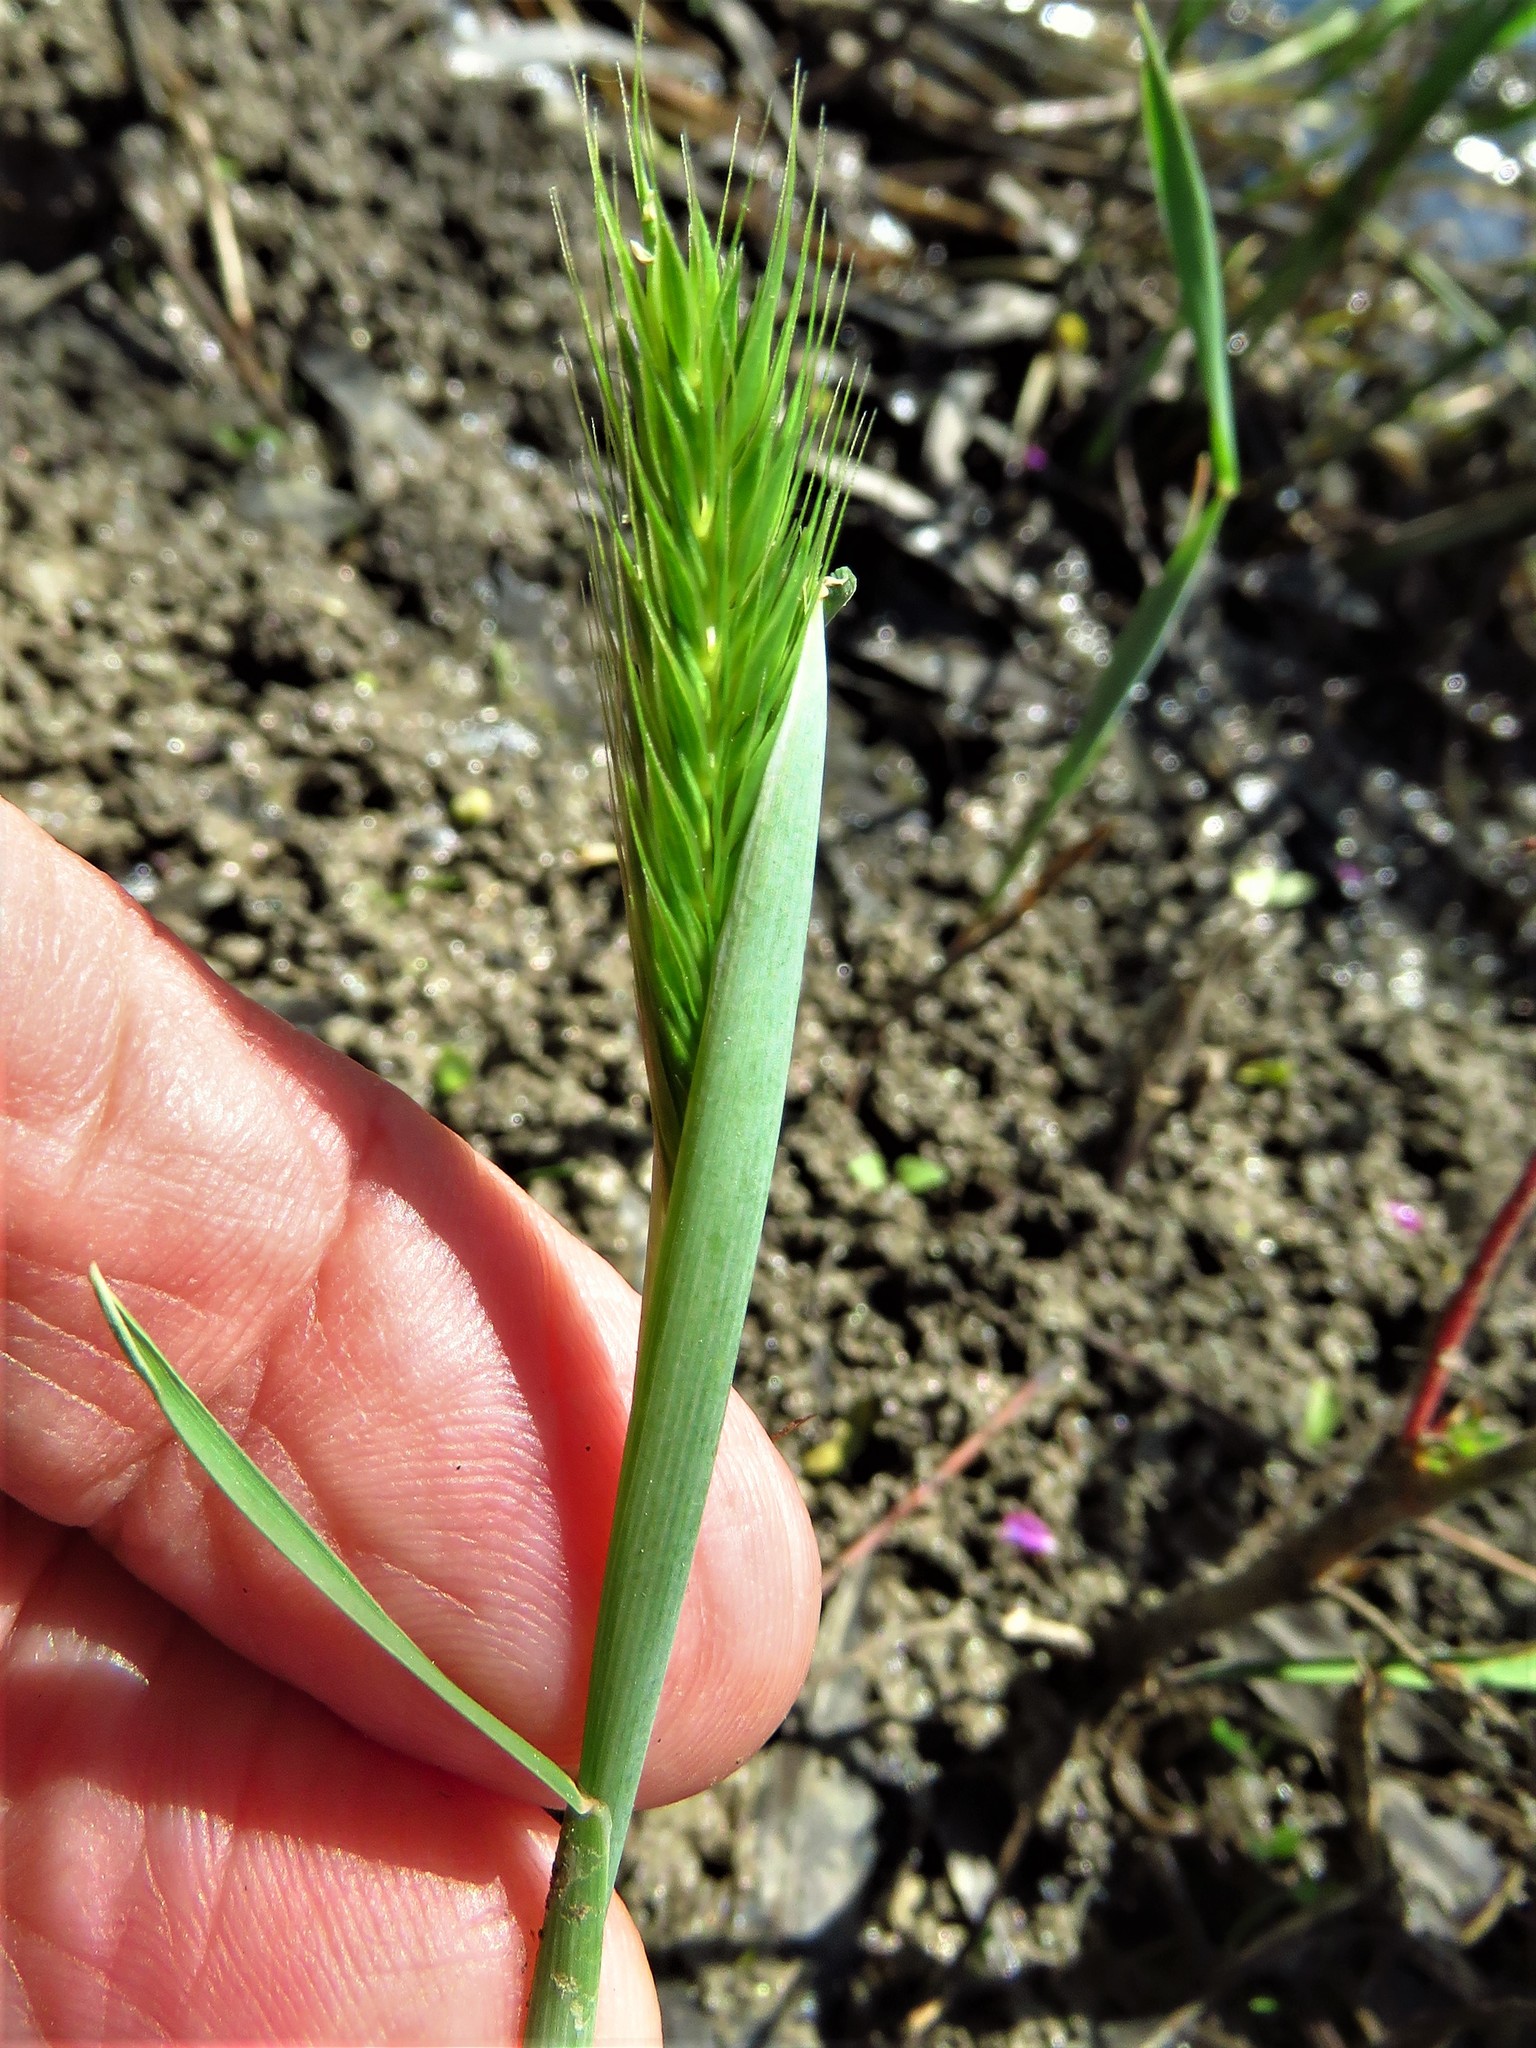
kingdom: Plantae
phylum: Tracheophyta
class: Liliopsida
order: Poales
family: Poaceae
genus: Hordeum
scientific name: Hordeum pusillum
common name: Little barley
